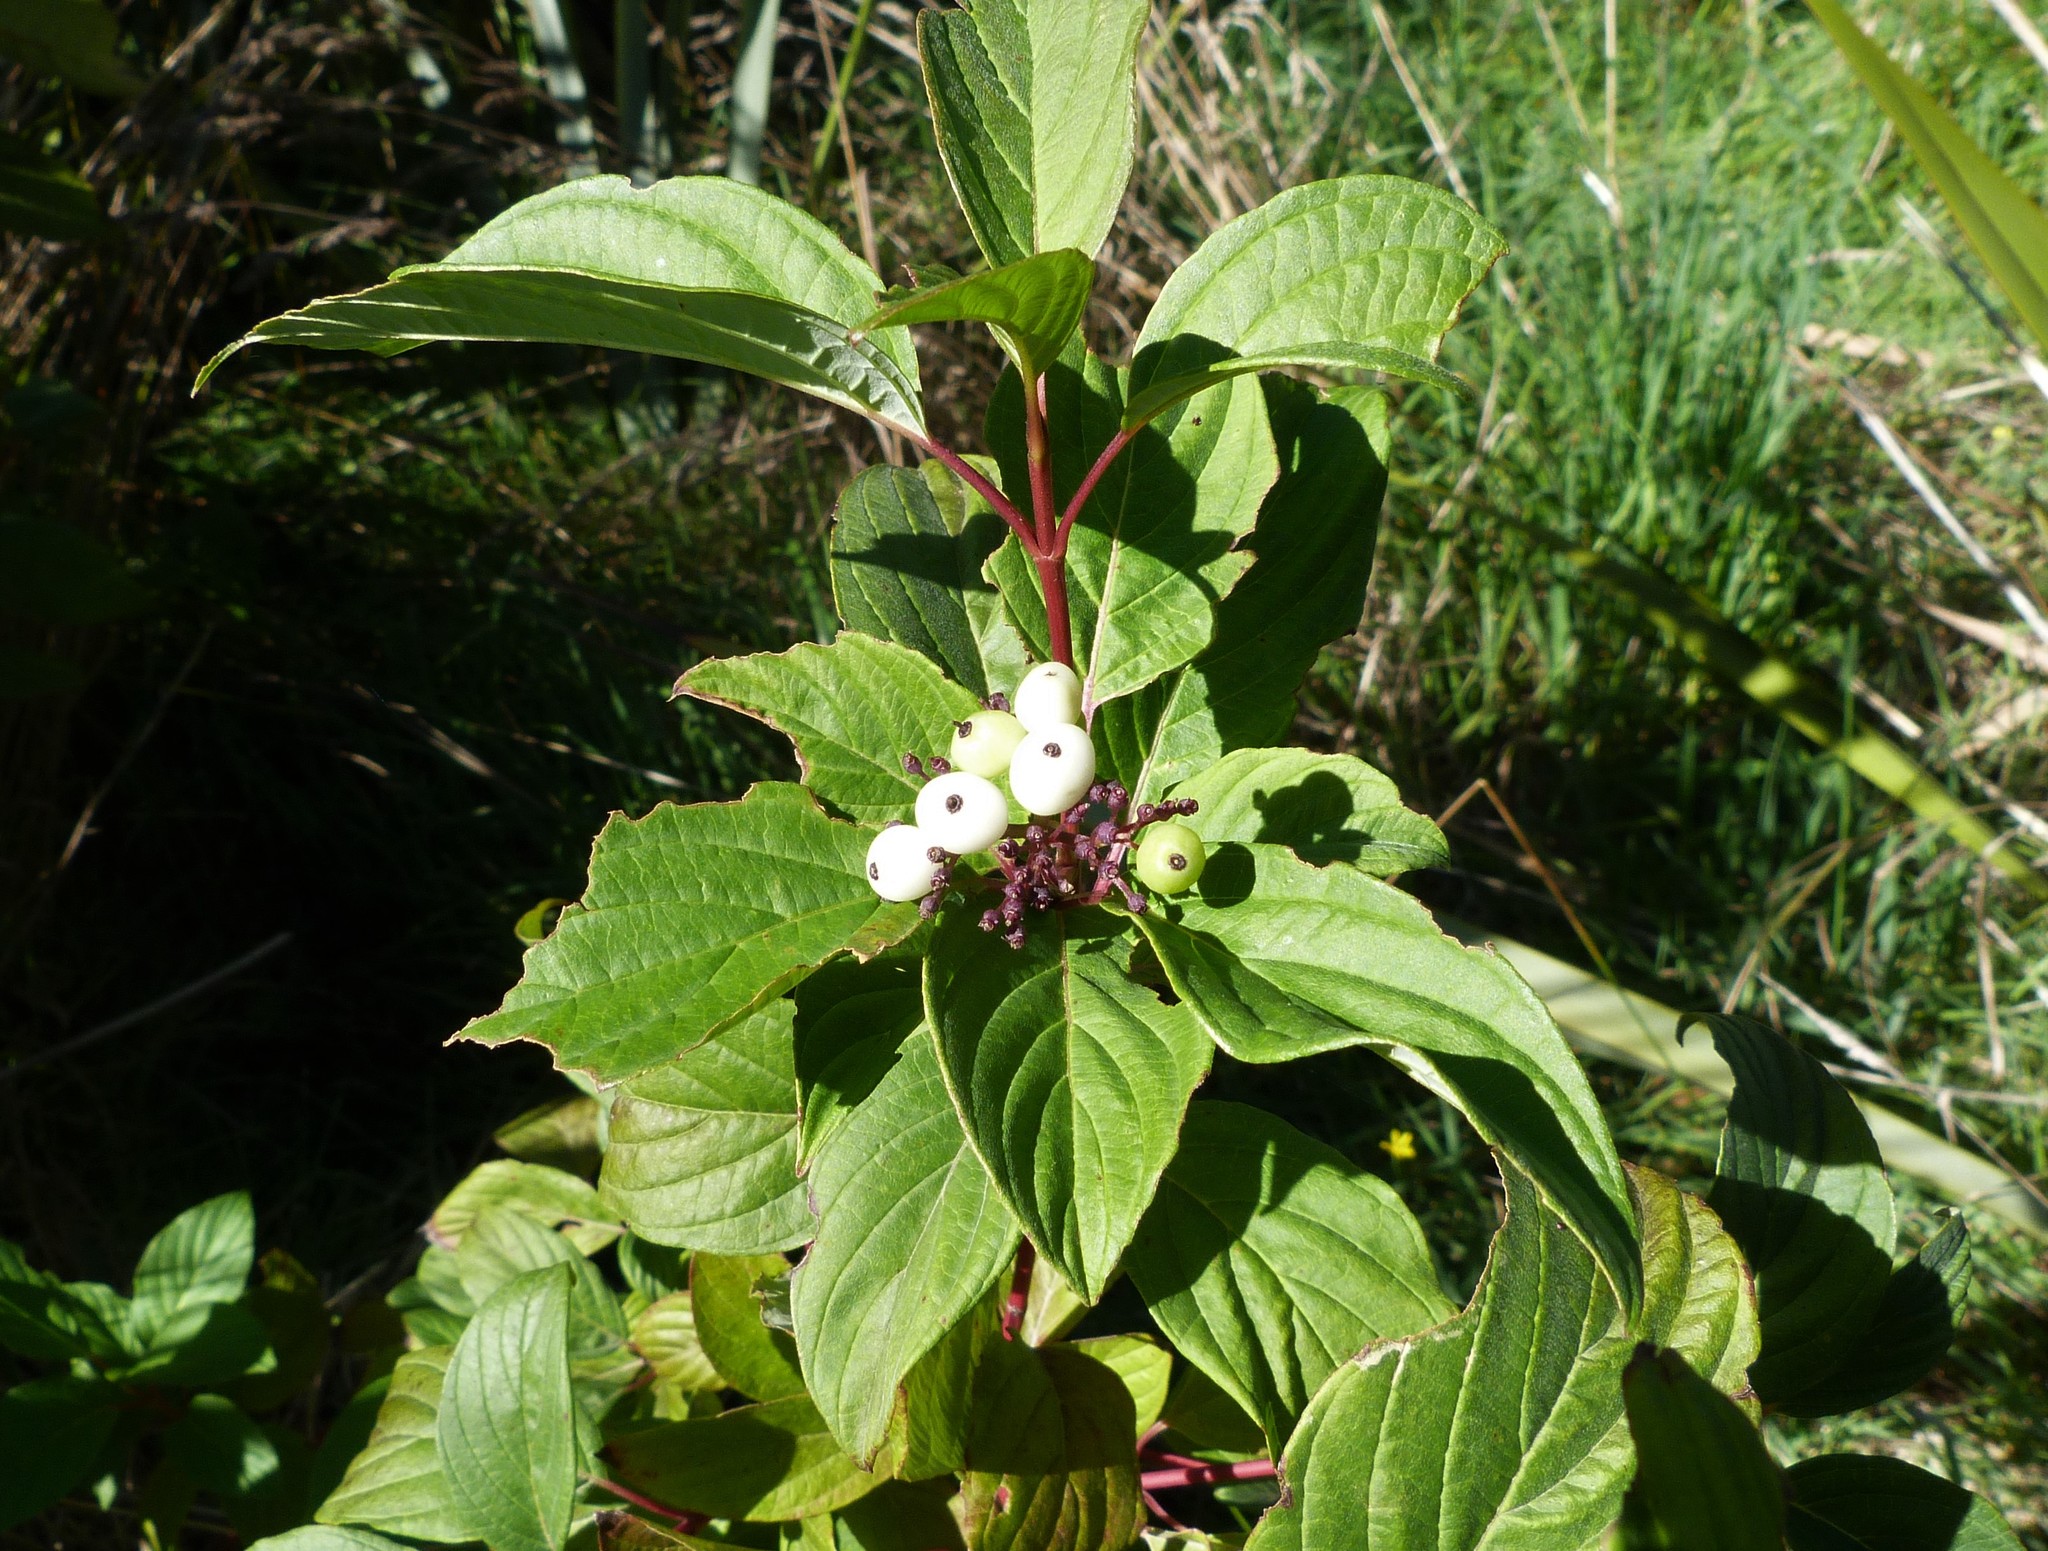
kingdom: Plantae
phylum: Tracheophyta
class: Magnoliopsida
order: Cornales
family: Cornaceae
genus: Cornus
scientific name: Cornus alba
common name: White dogwood
